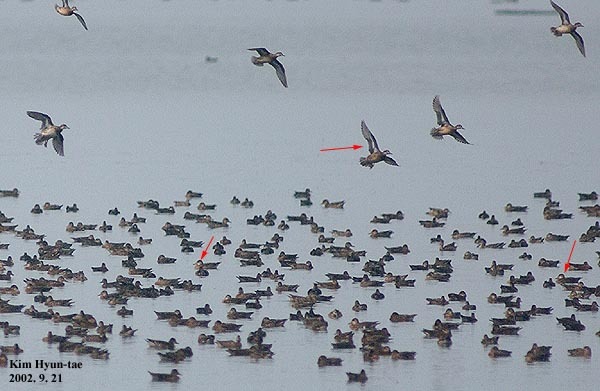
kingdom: Animalia
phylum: Chordata
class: Aves
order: Anseriformes
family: Anatidae
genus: Sibirionetta
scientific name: Sibirionetta formosa
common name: Baikal teal
